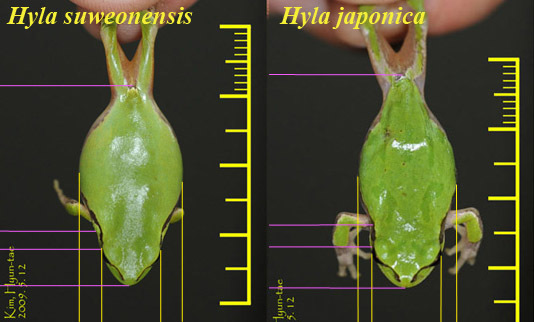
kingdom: Animalia
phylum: Chordata
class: Amphibia
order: Anura
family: Hylidae
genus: Dryophytes
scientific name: Dryophytes immaculatus
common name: North china treefrog
